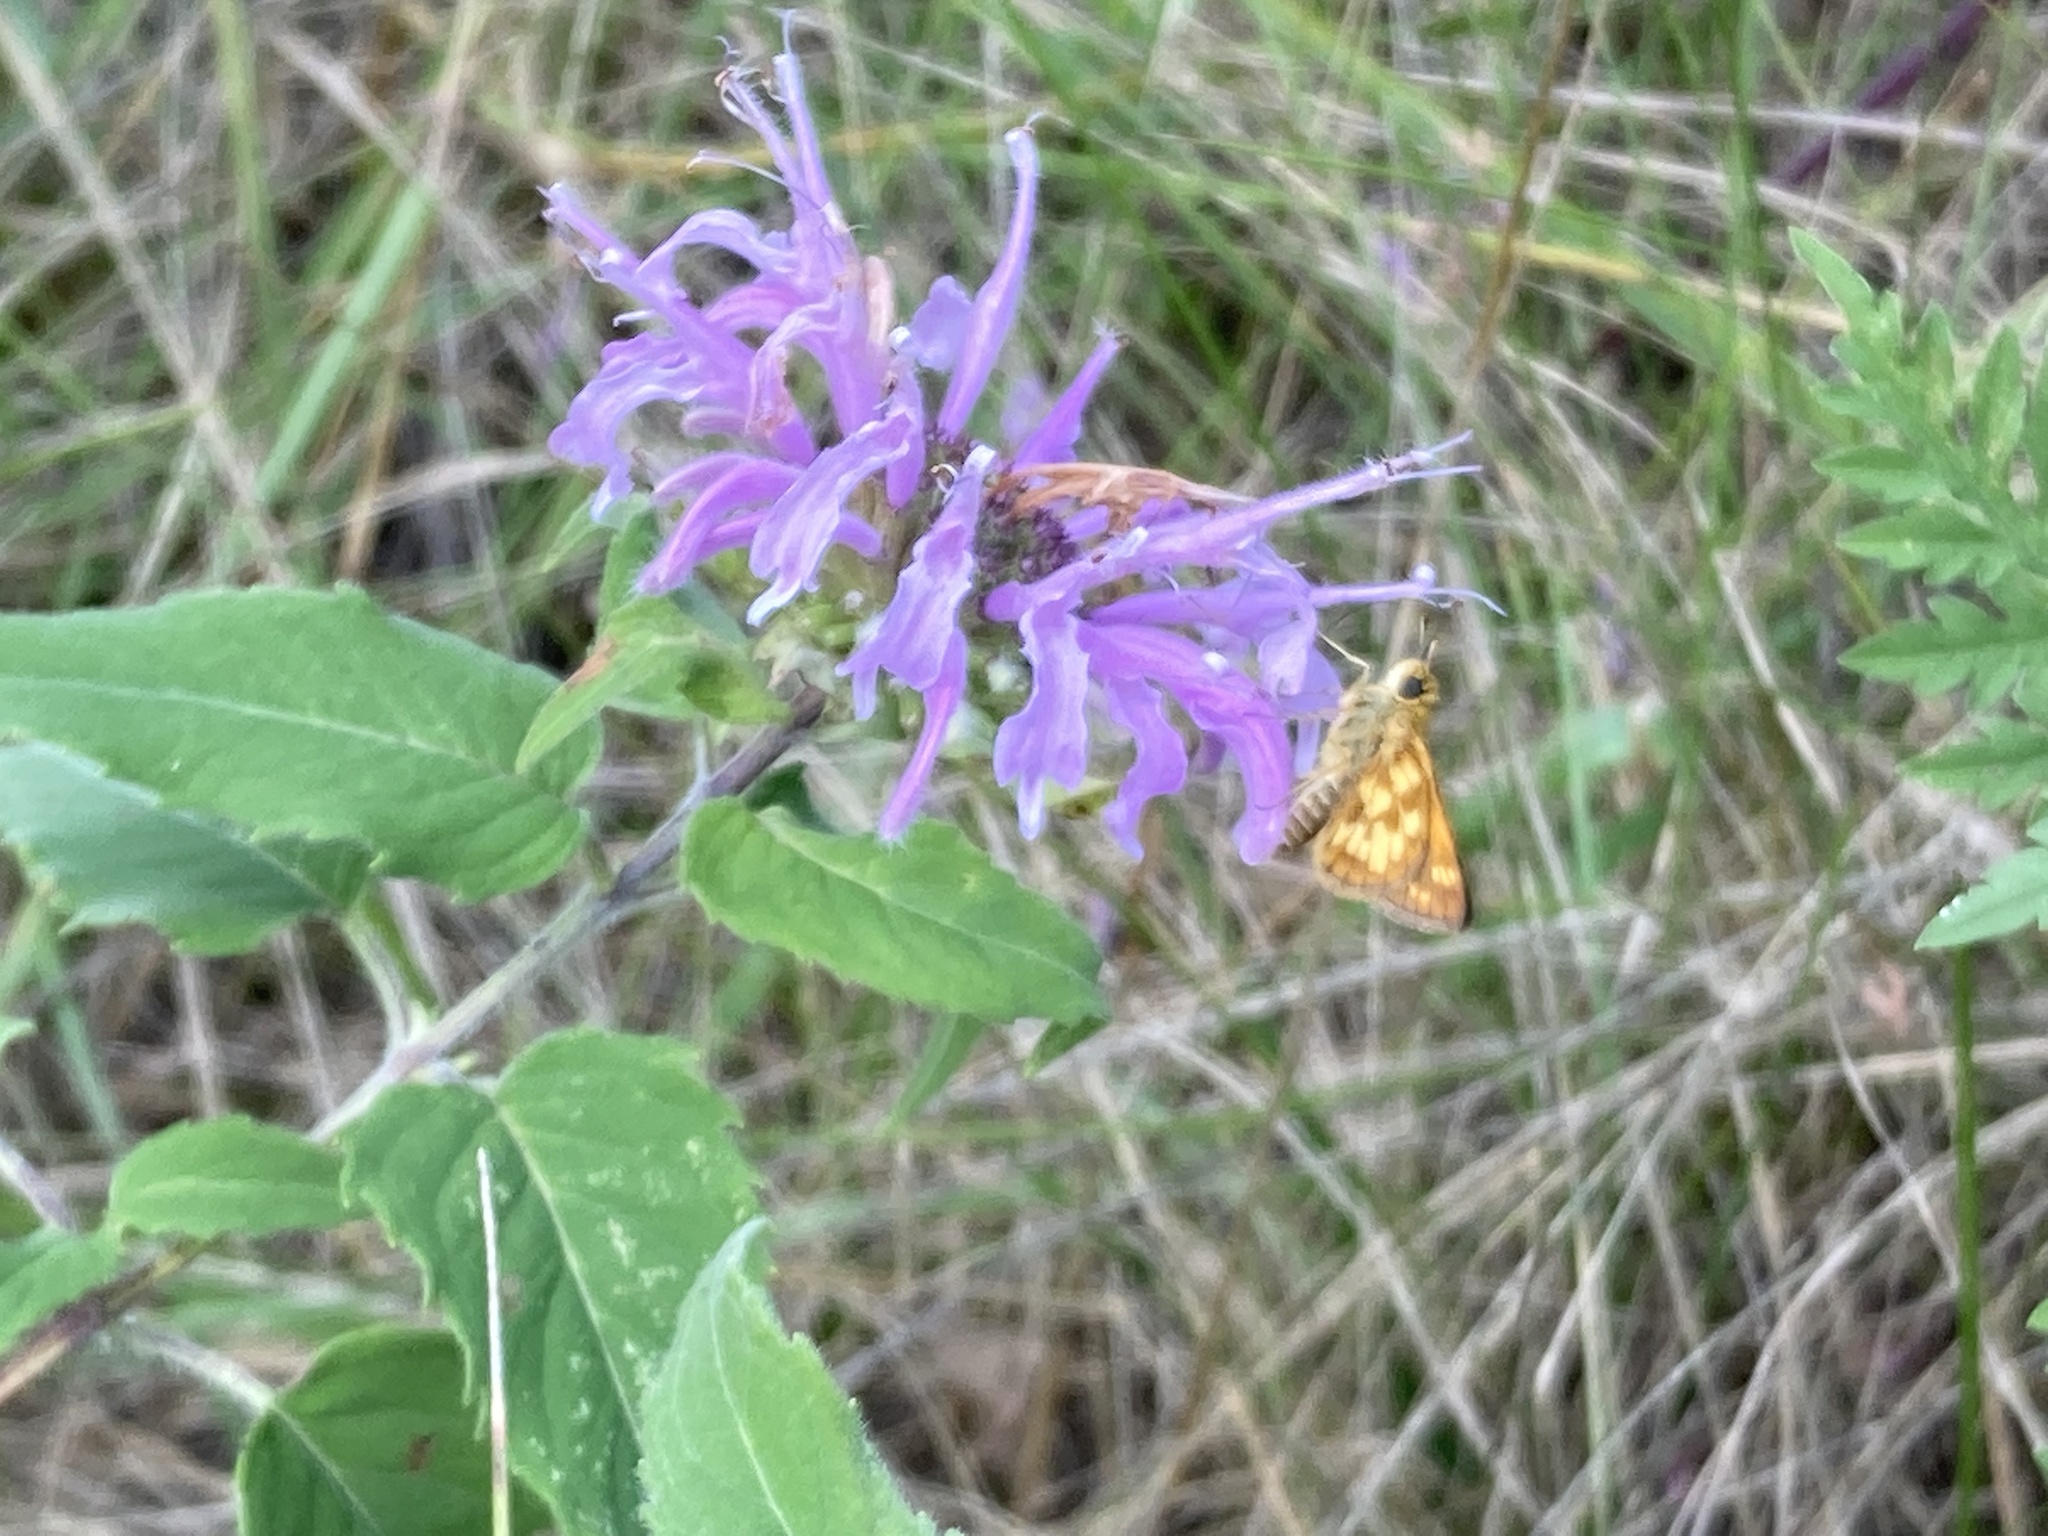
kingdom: Animalia
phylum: Arthropoda
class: Insecta
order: Lepidoptera
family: Hesperiidae
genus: Polites
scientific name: Polites coras
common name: Peck's skipper
